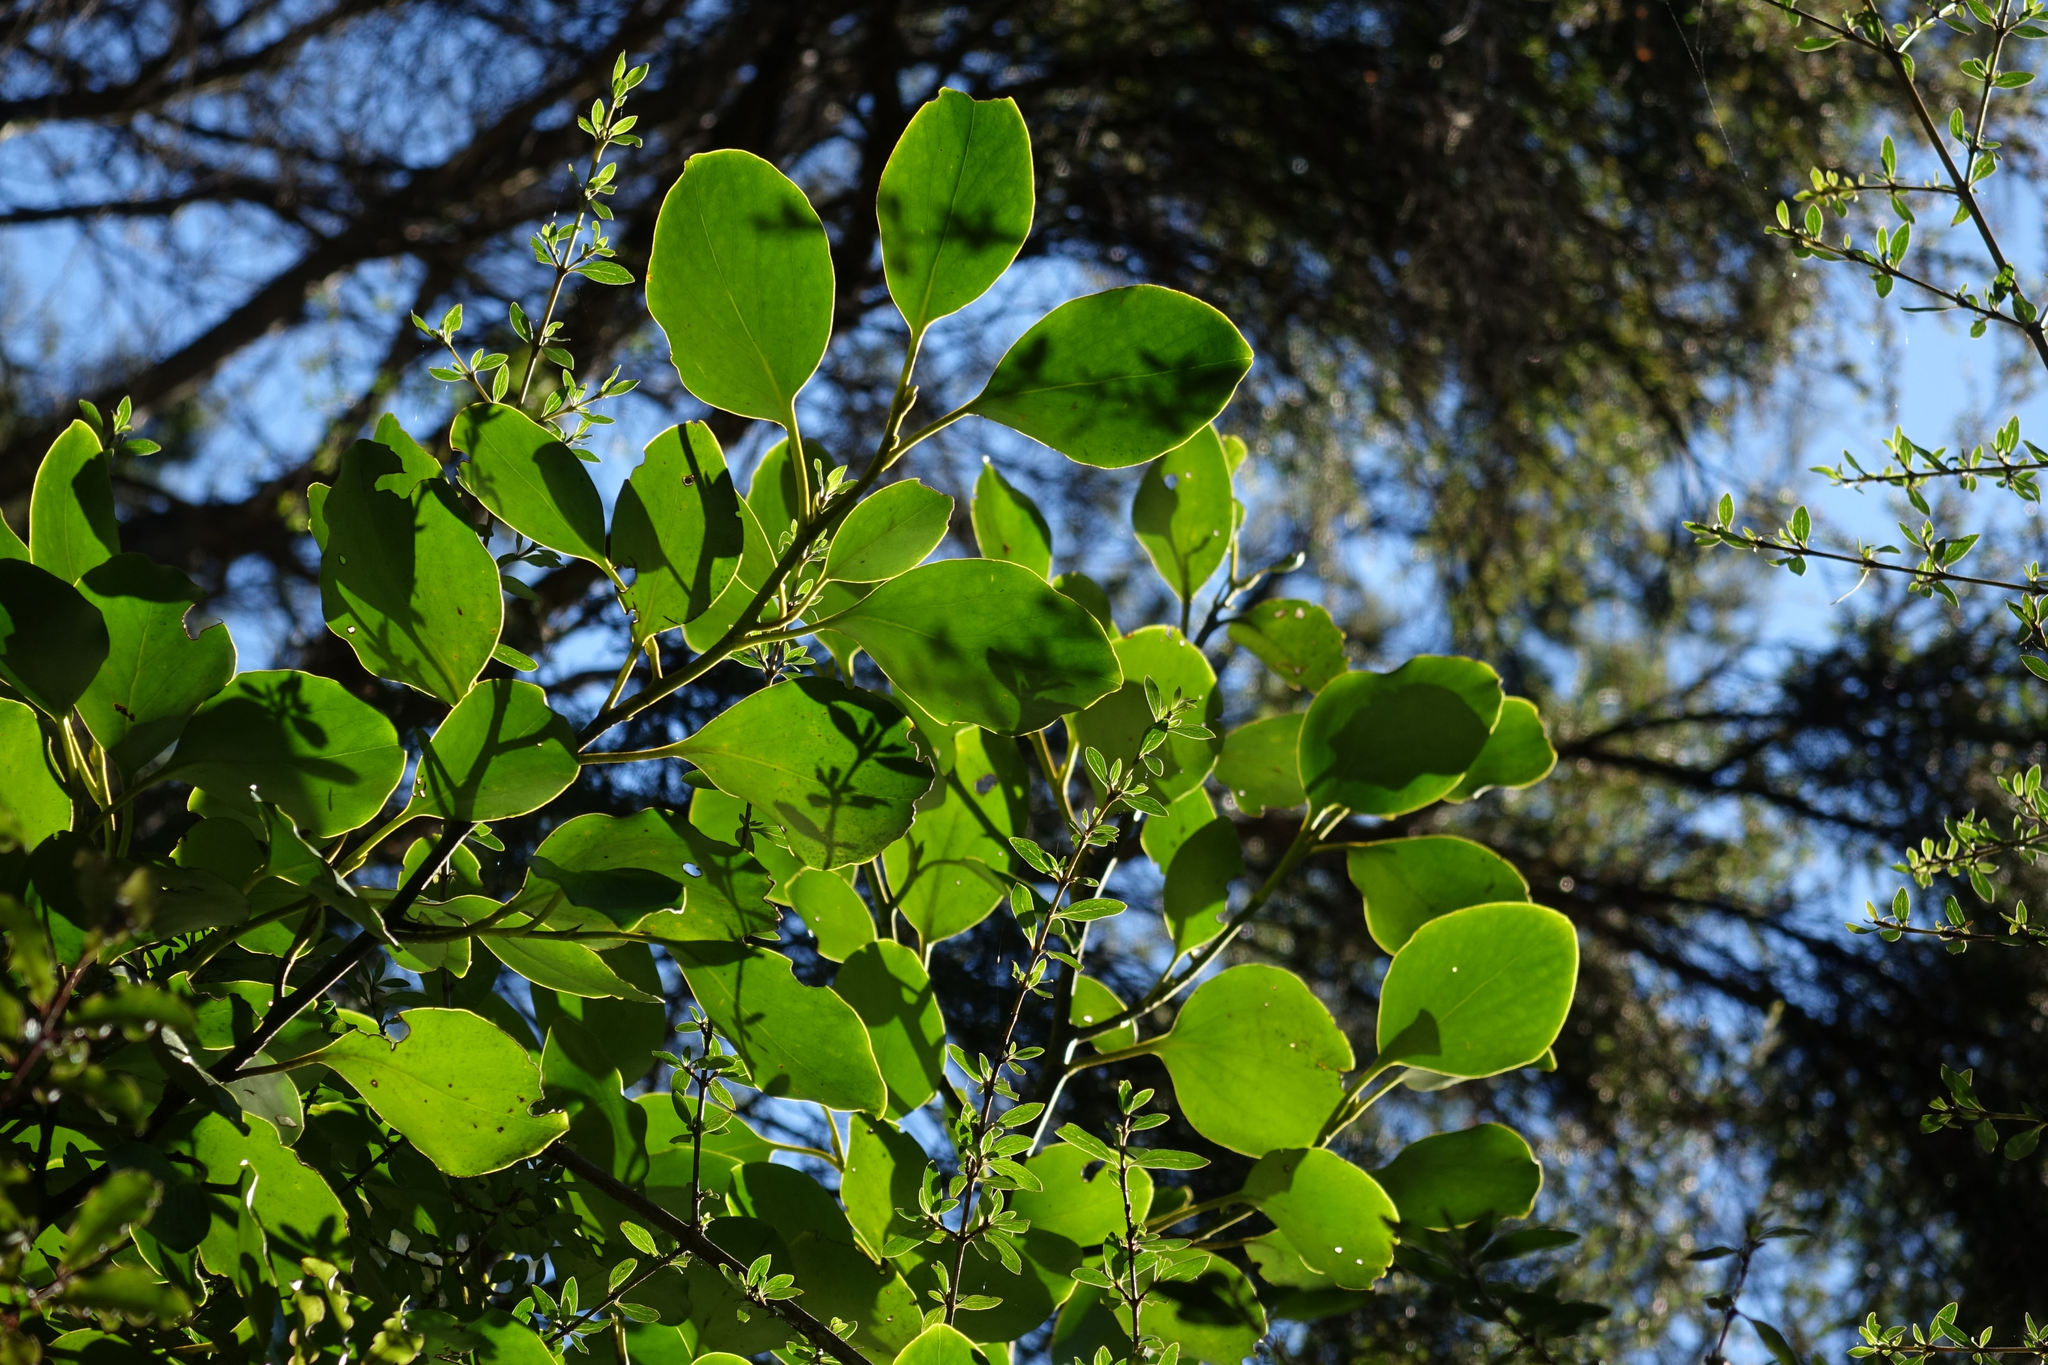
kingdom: Plantae
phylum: Tracheophyta
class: Magnoliopsida
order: Apiales
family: Griseliniaceae
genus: Griselinia
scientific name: Griselinia littoralis
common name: New zealand broadleaf
